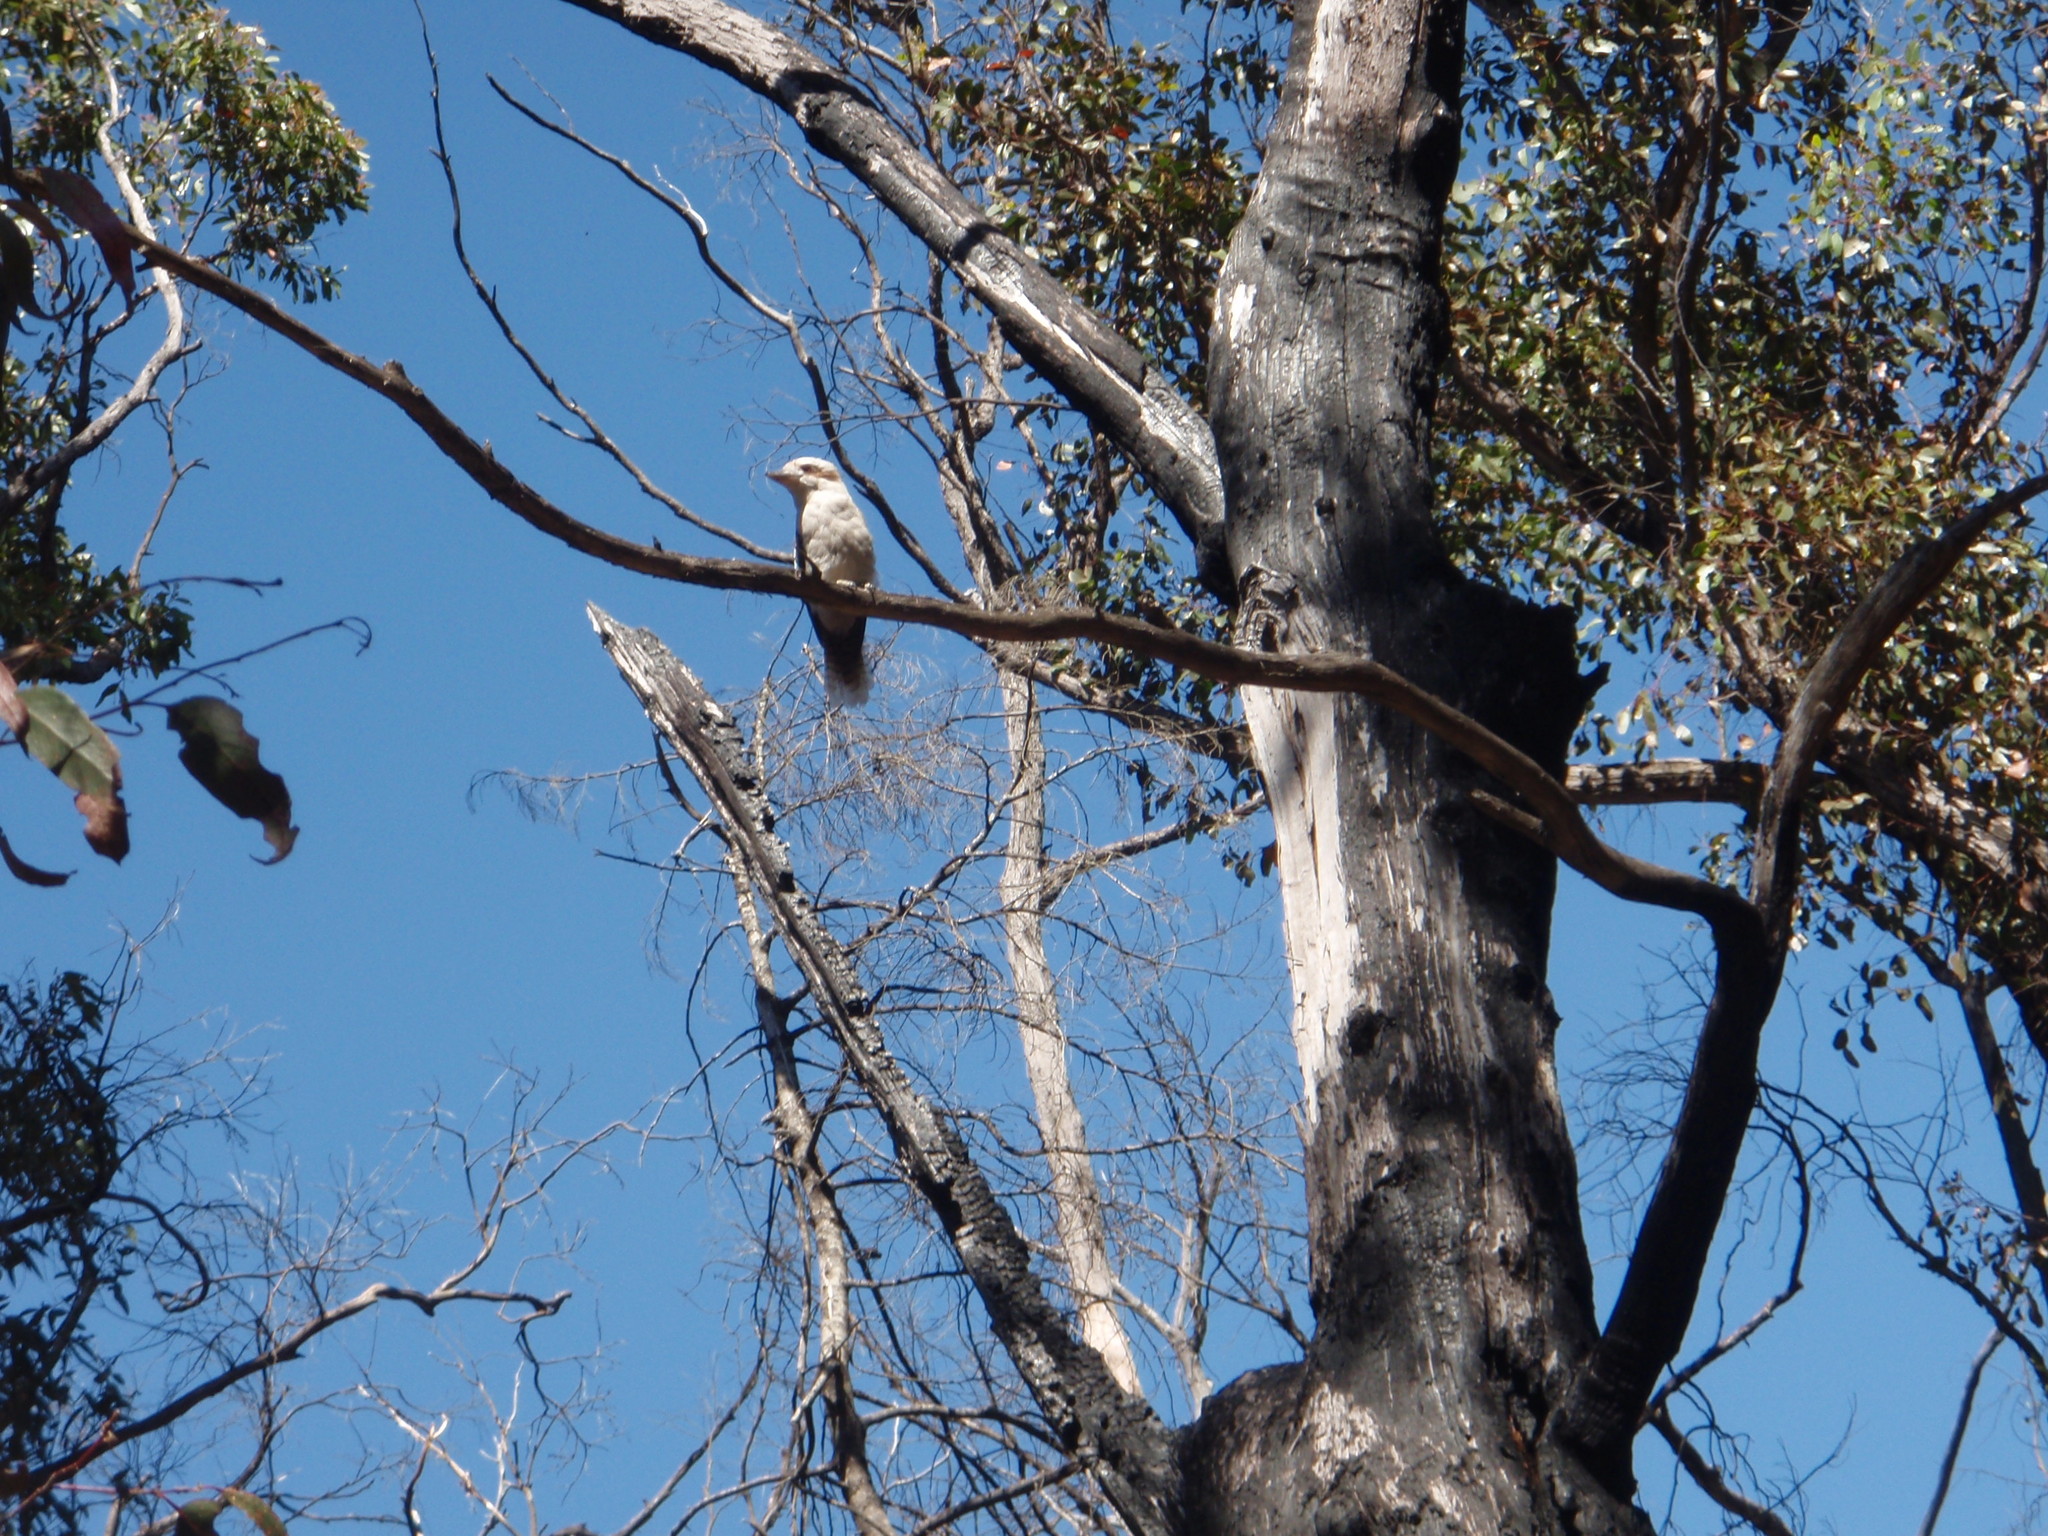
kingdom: Animalia
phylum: Chordata
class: Aves
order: Coraciiformes
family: Alcedinidae
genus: Dacelo
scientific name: Dacelo novaeguineae
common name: Laughing kookaburra
